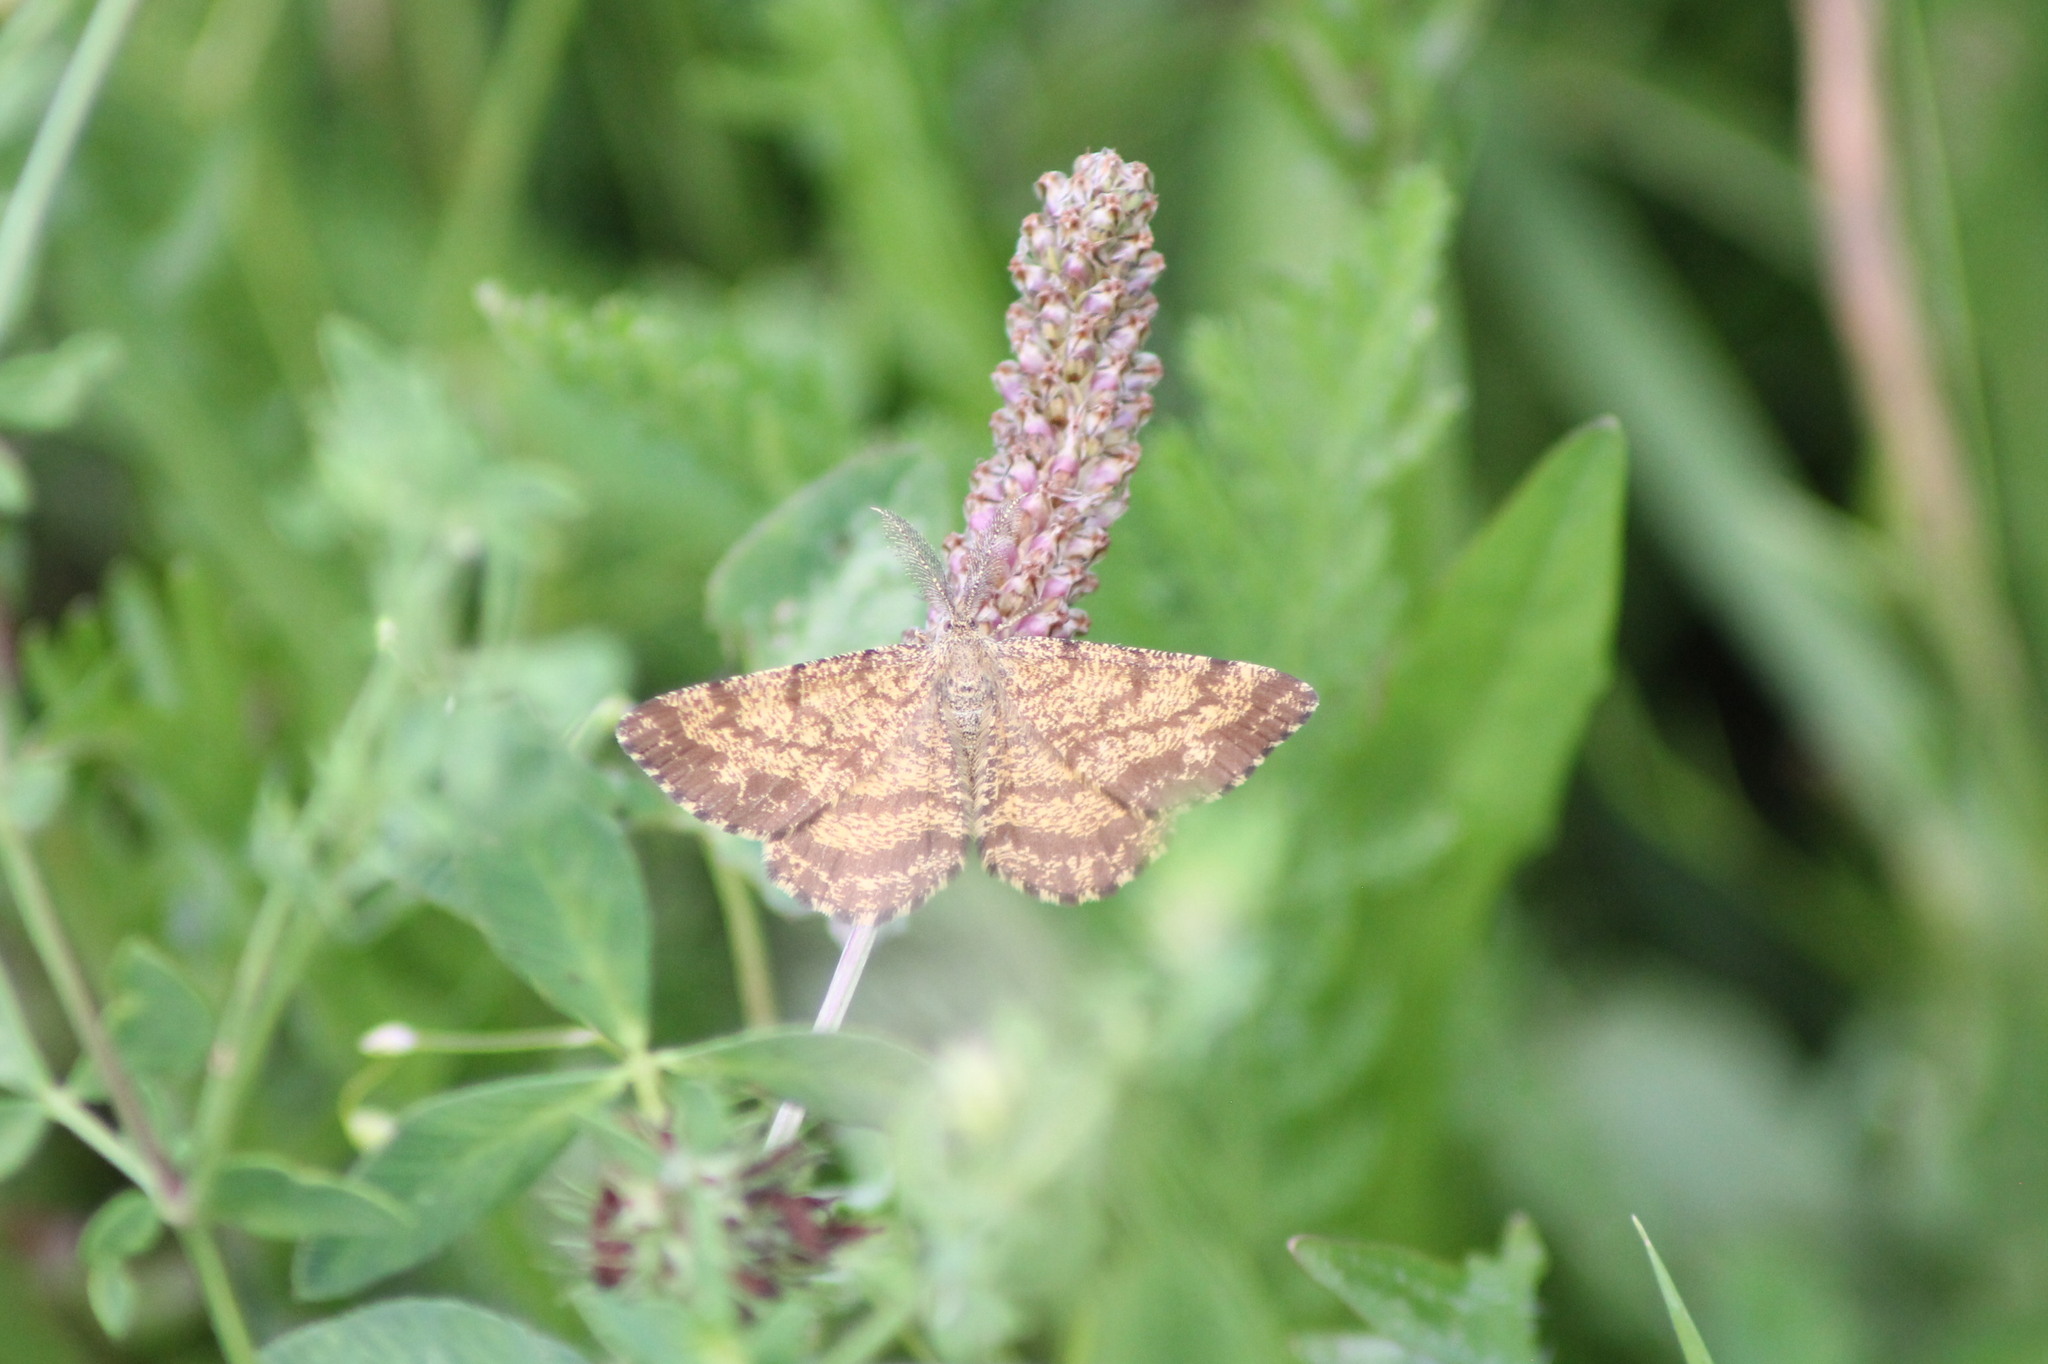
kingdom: Animalia
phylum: Arthropoda
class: Insecta
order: Lepidoptera
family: Geometridae
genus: Ematurga
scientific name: Ematurga atomaria
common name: Common heath
